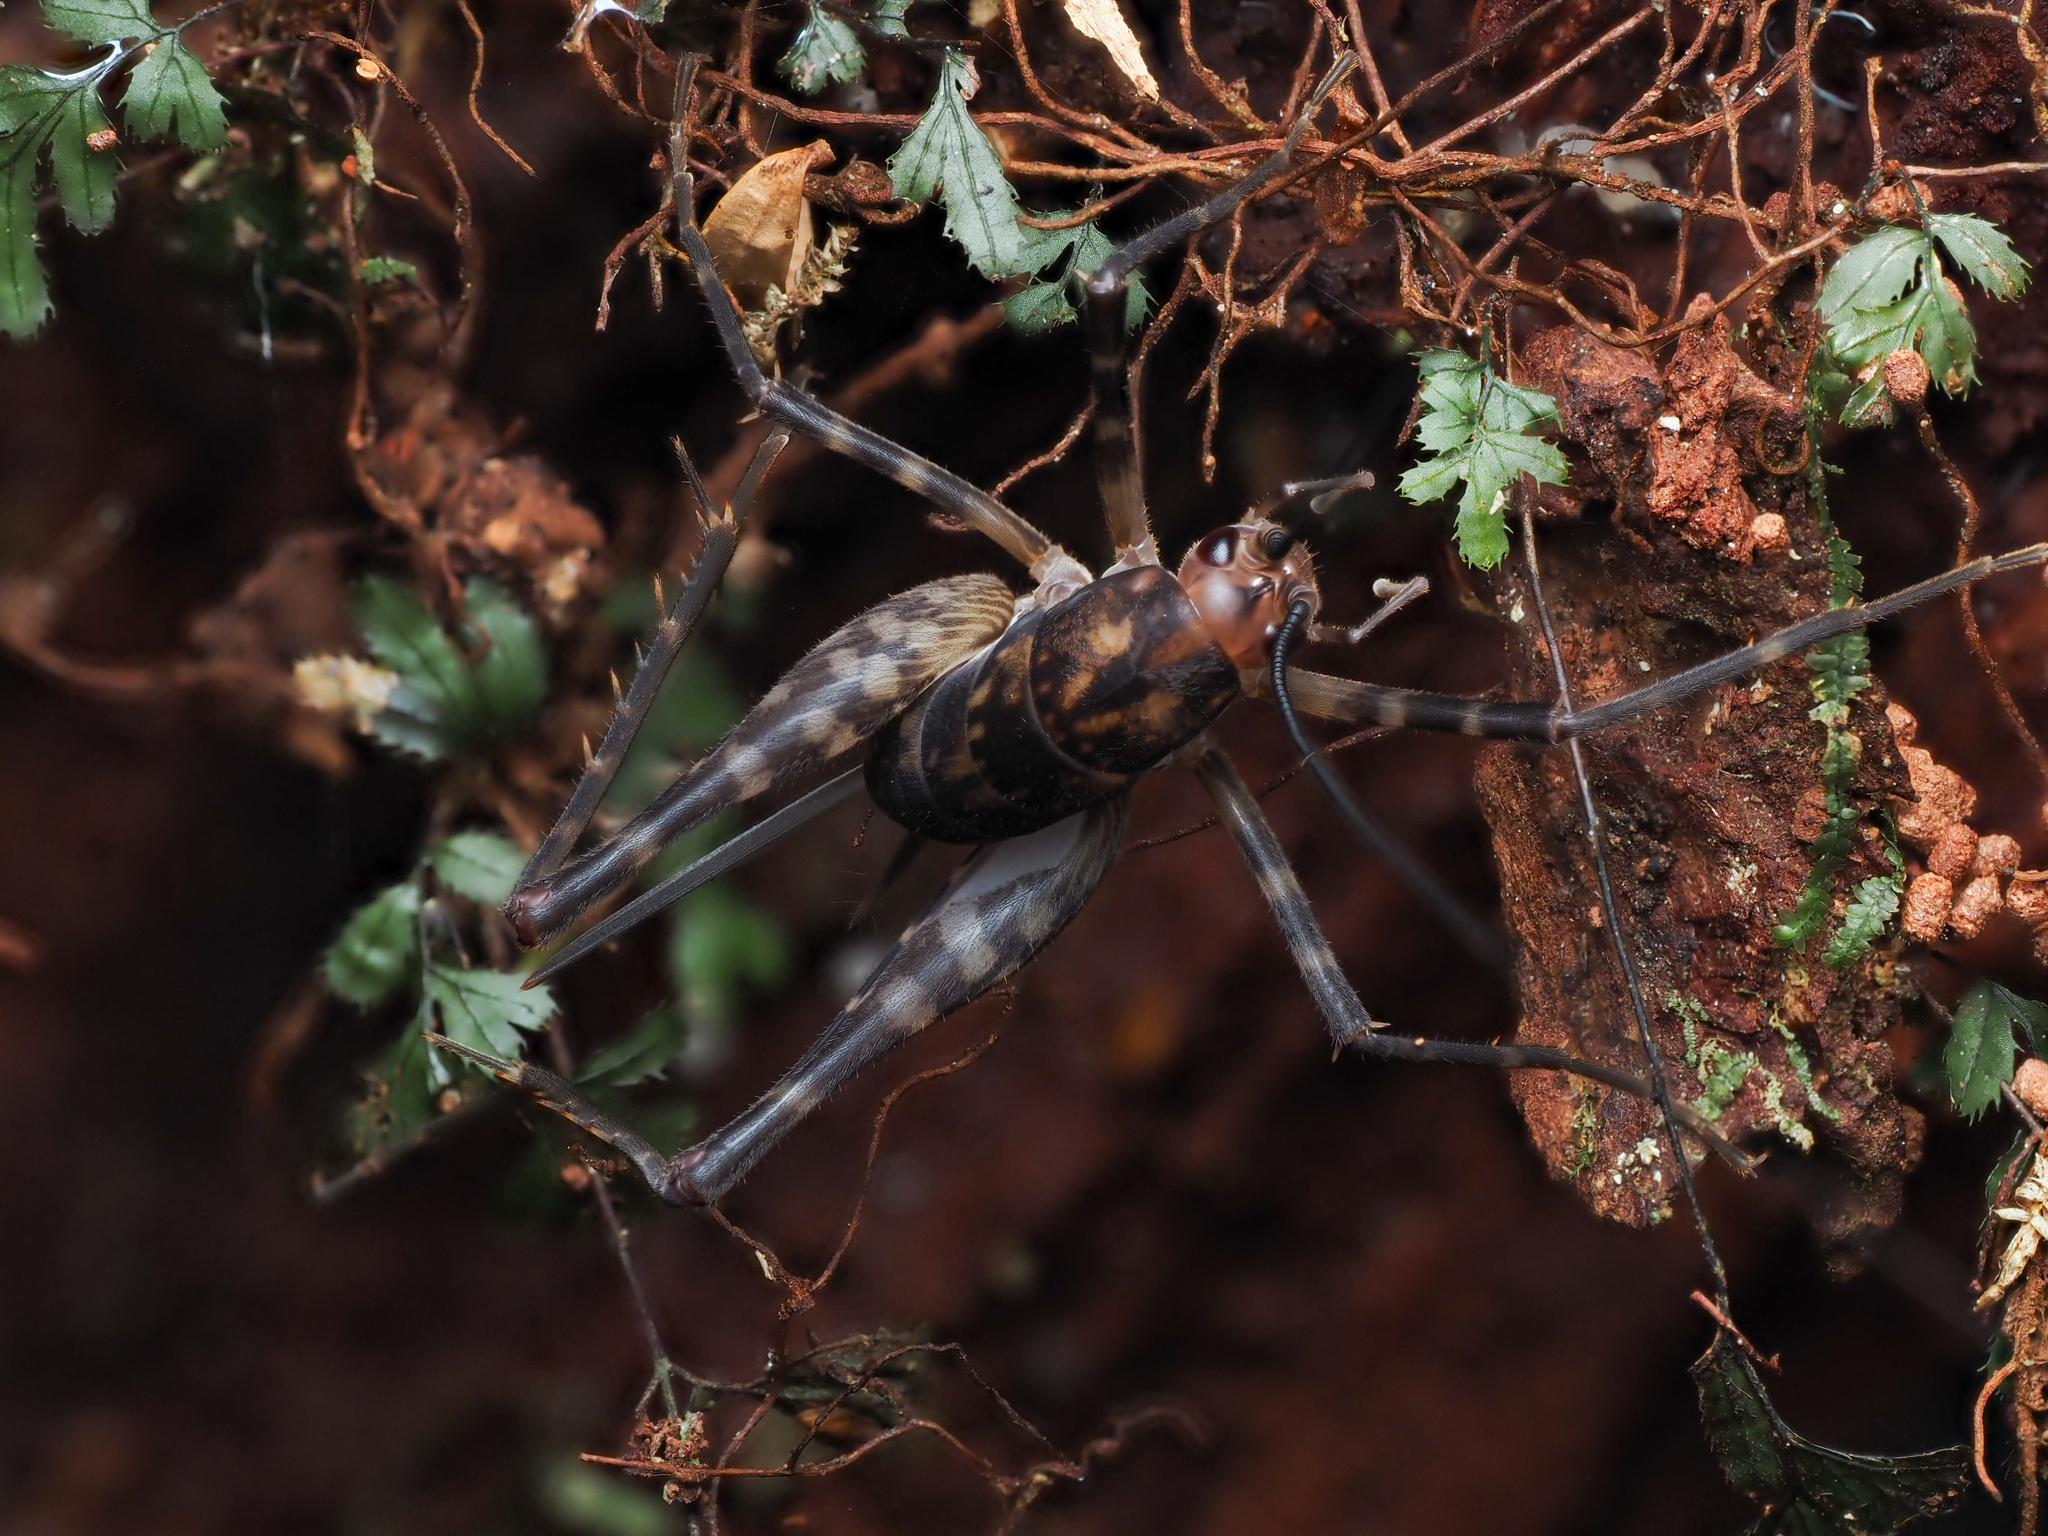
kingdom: Animalia
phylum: Arthropoda
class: Insecta
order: Orthoptera
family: Rhaphidophoridae
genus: Miotopus
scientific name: Miotopus richardsae
